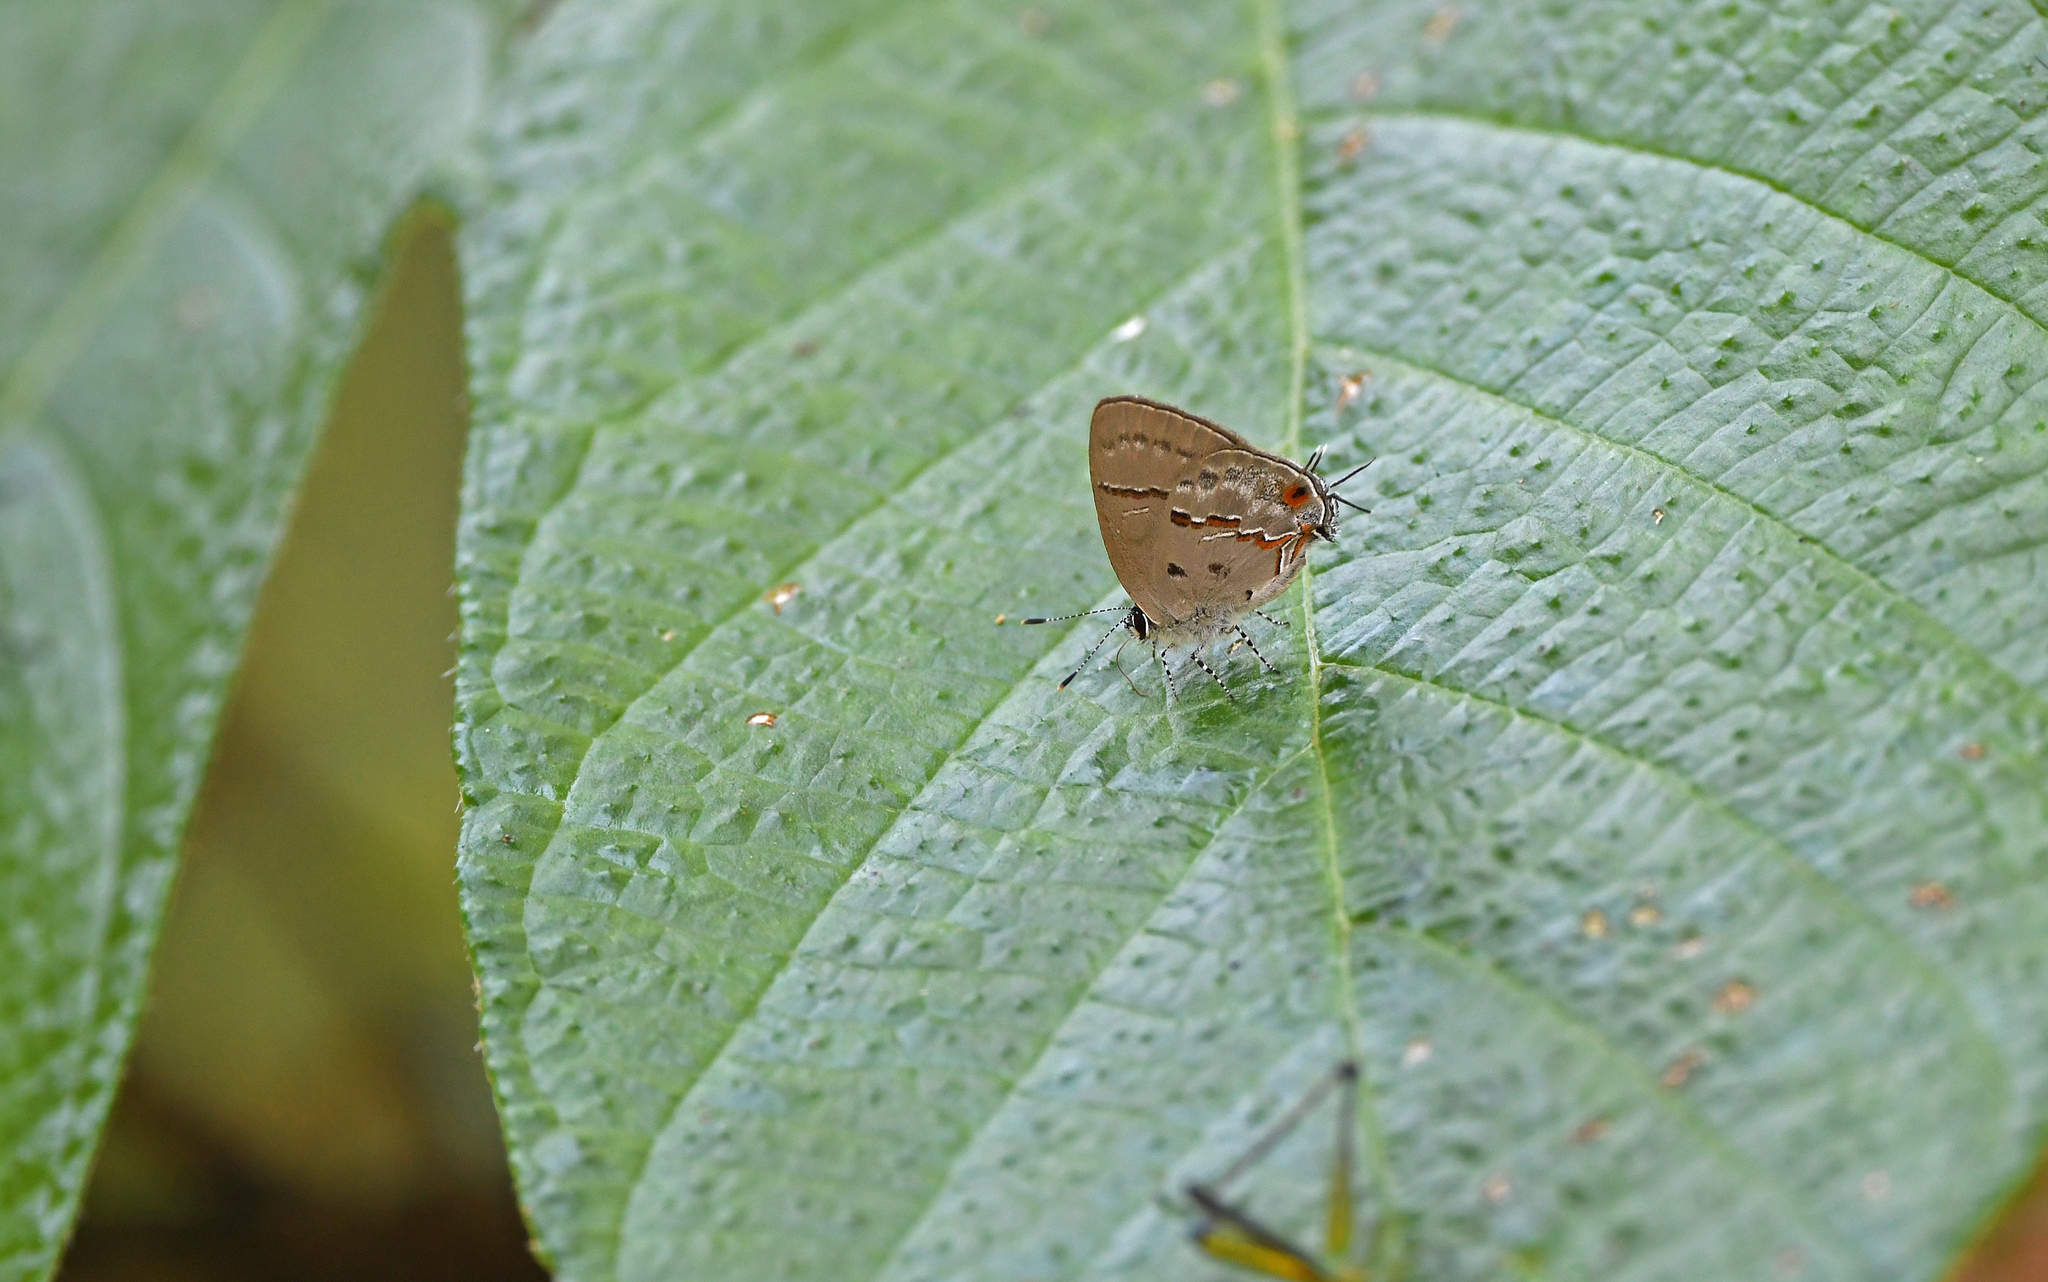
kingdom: Animalia
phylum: Arthropoda
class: Insecta
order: Lepidoptera
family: Lycaenidae
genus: Thecla
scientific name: Thecla alda
